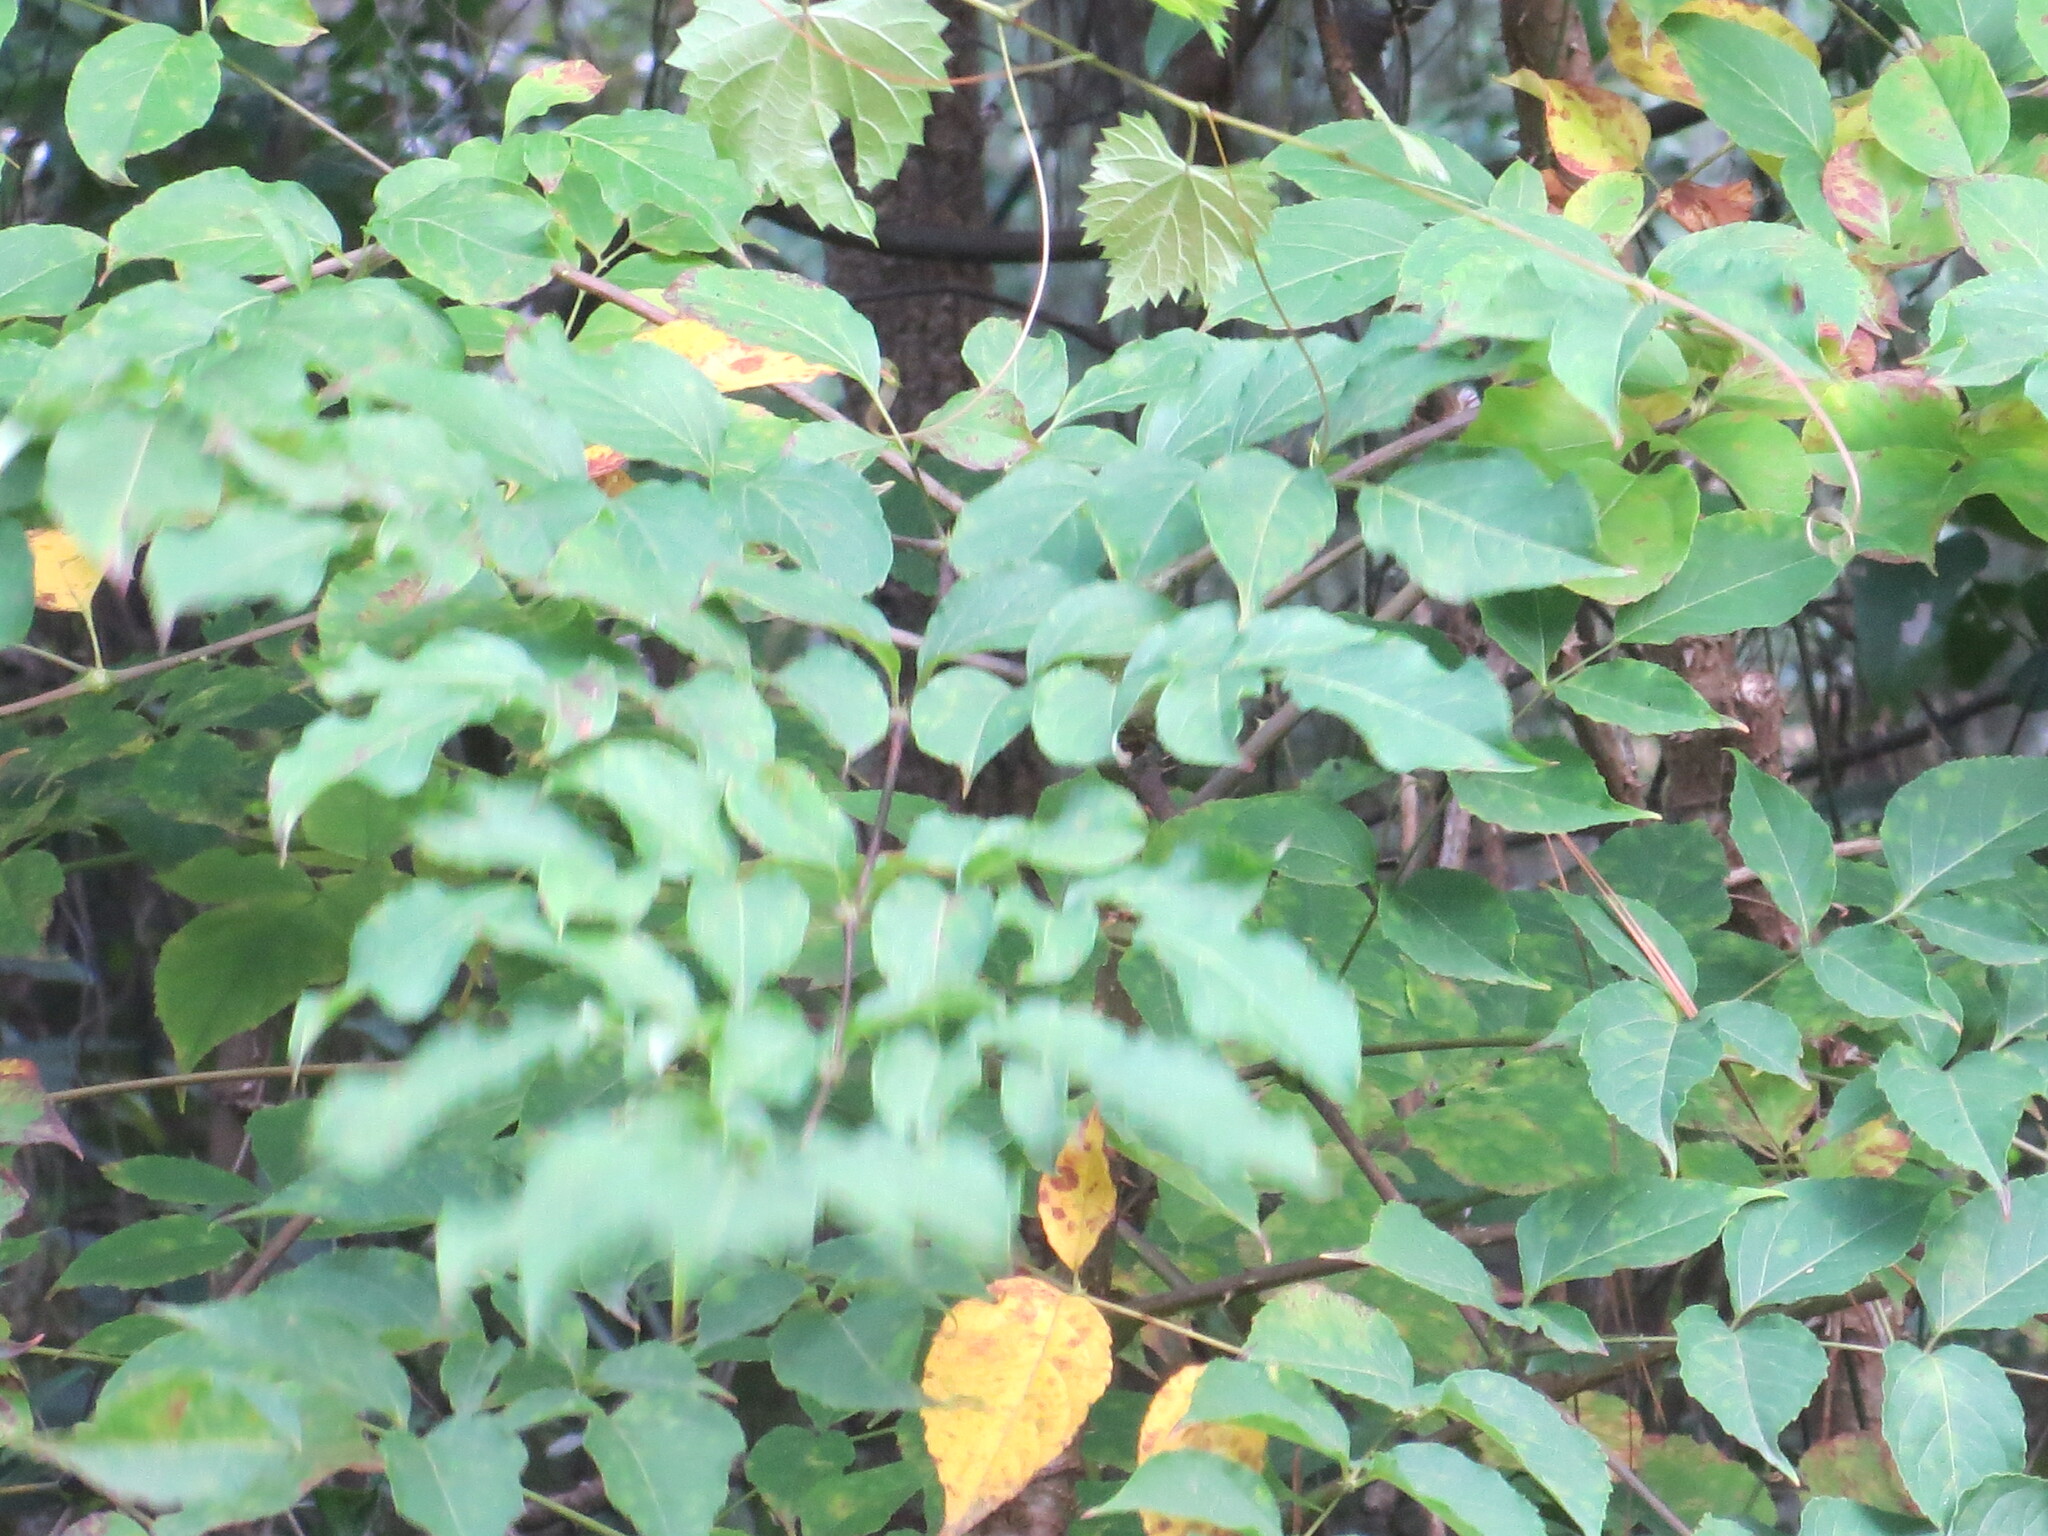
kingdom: Plantae
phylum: Tracheophyta
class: Magnoliopsida
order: Apiales
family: Araliaceae
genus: Aralia
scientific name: Aralia spinosa
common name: Hercules'-club
